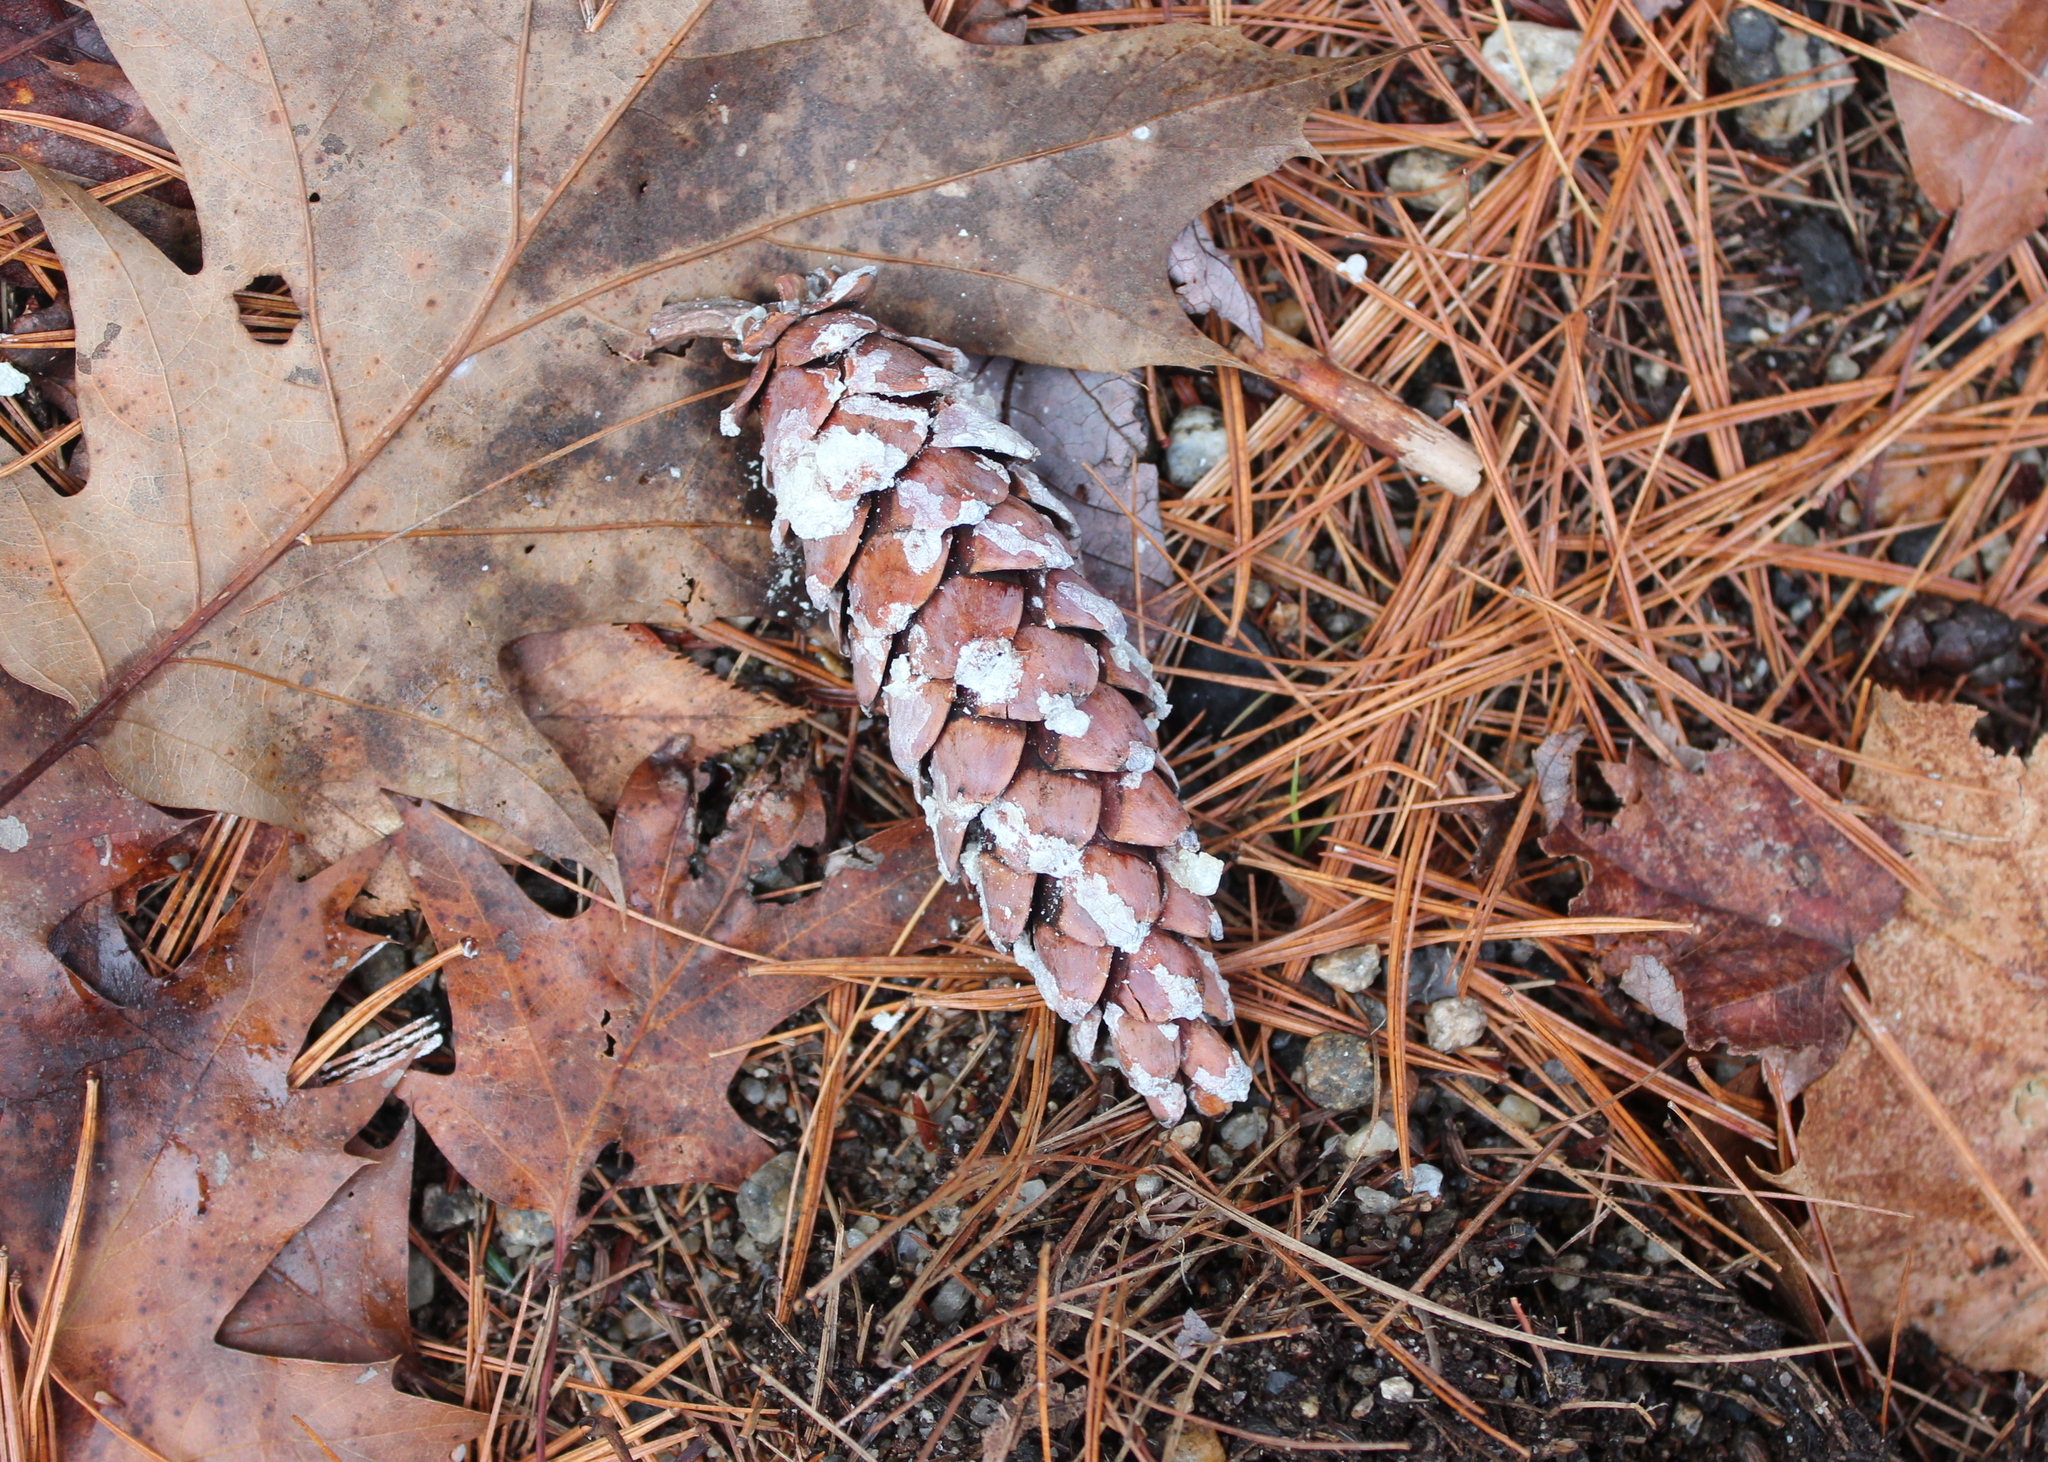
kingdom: Plantae
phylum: Tracheophyta
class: Pinopsida
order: Pinales
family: Pinaceae
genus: Pinus
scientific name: Pinus strobus
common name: Weymouth pine
